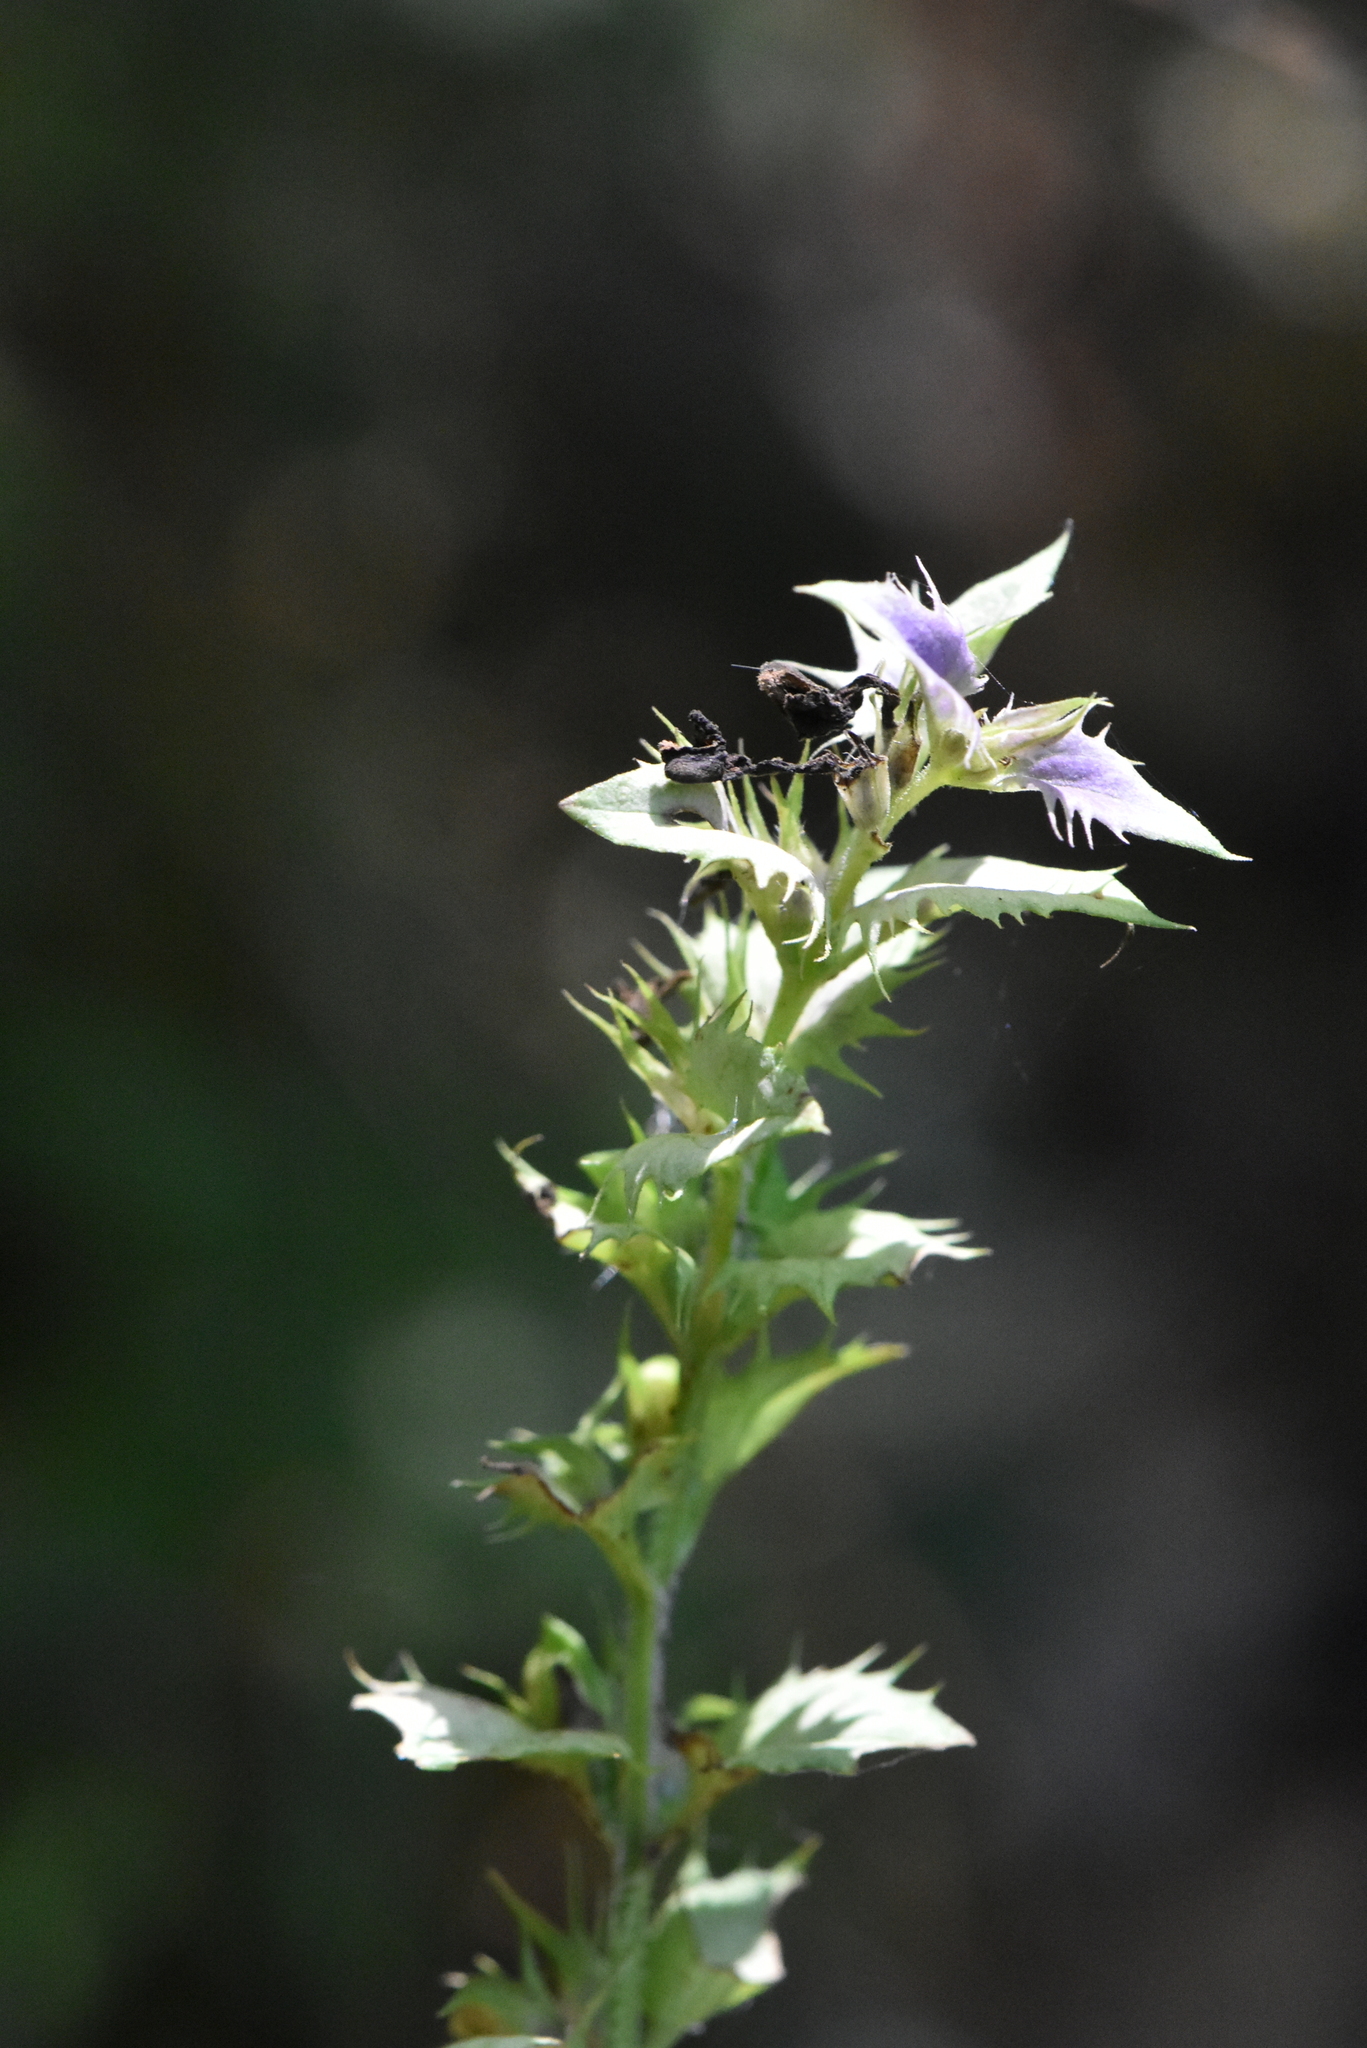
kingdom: Plantae
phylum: Tracheophyta
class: Magnoliopsida
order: Lamiales
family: Orobanchaceae
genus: Melampyrum
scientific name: Melampyrum nemorosum
